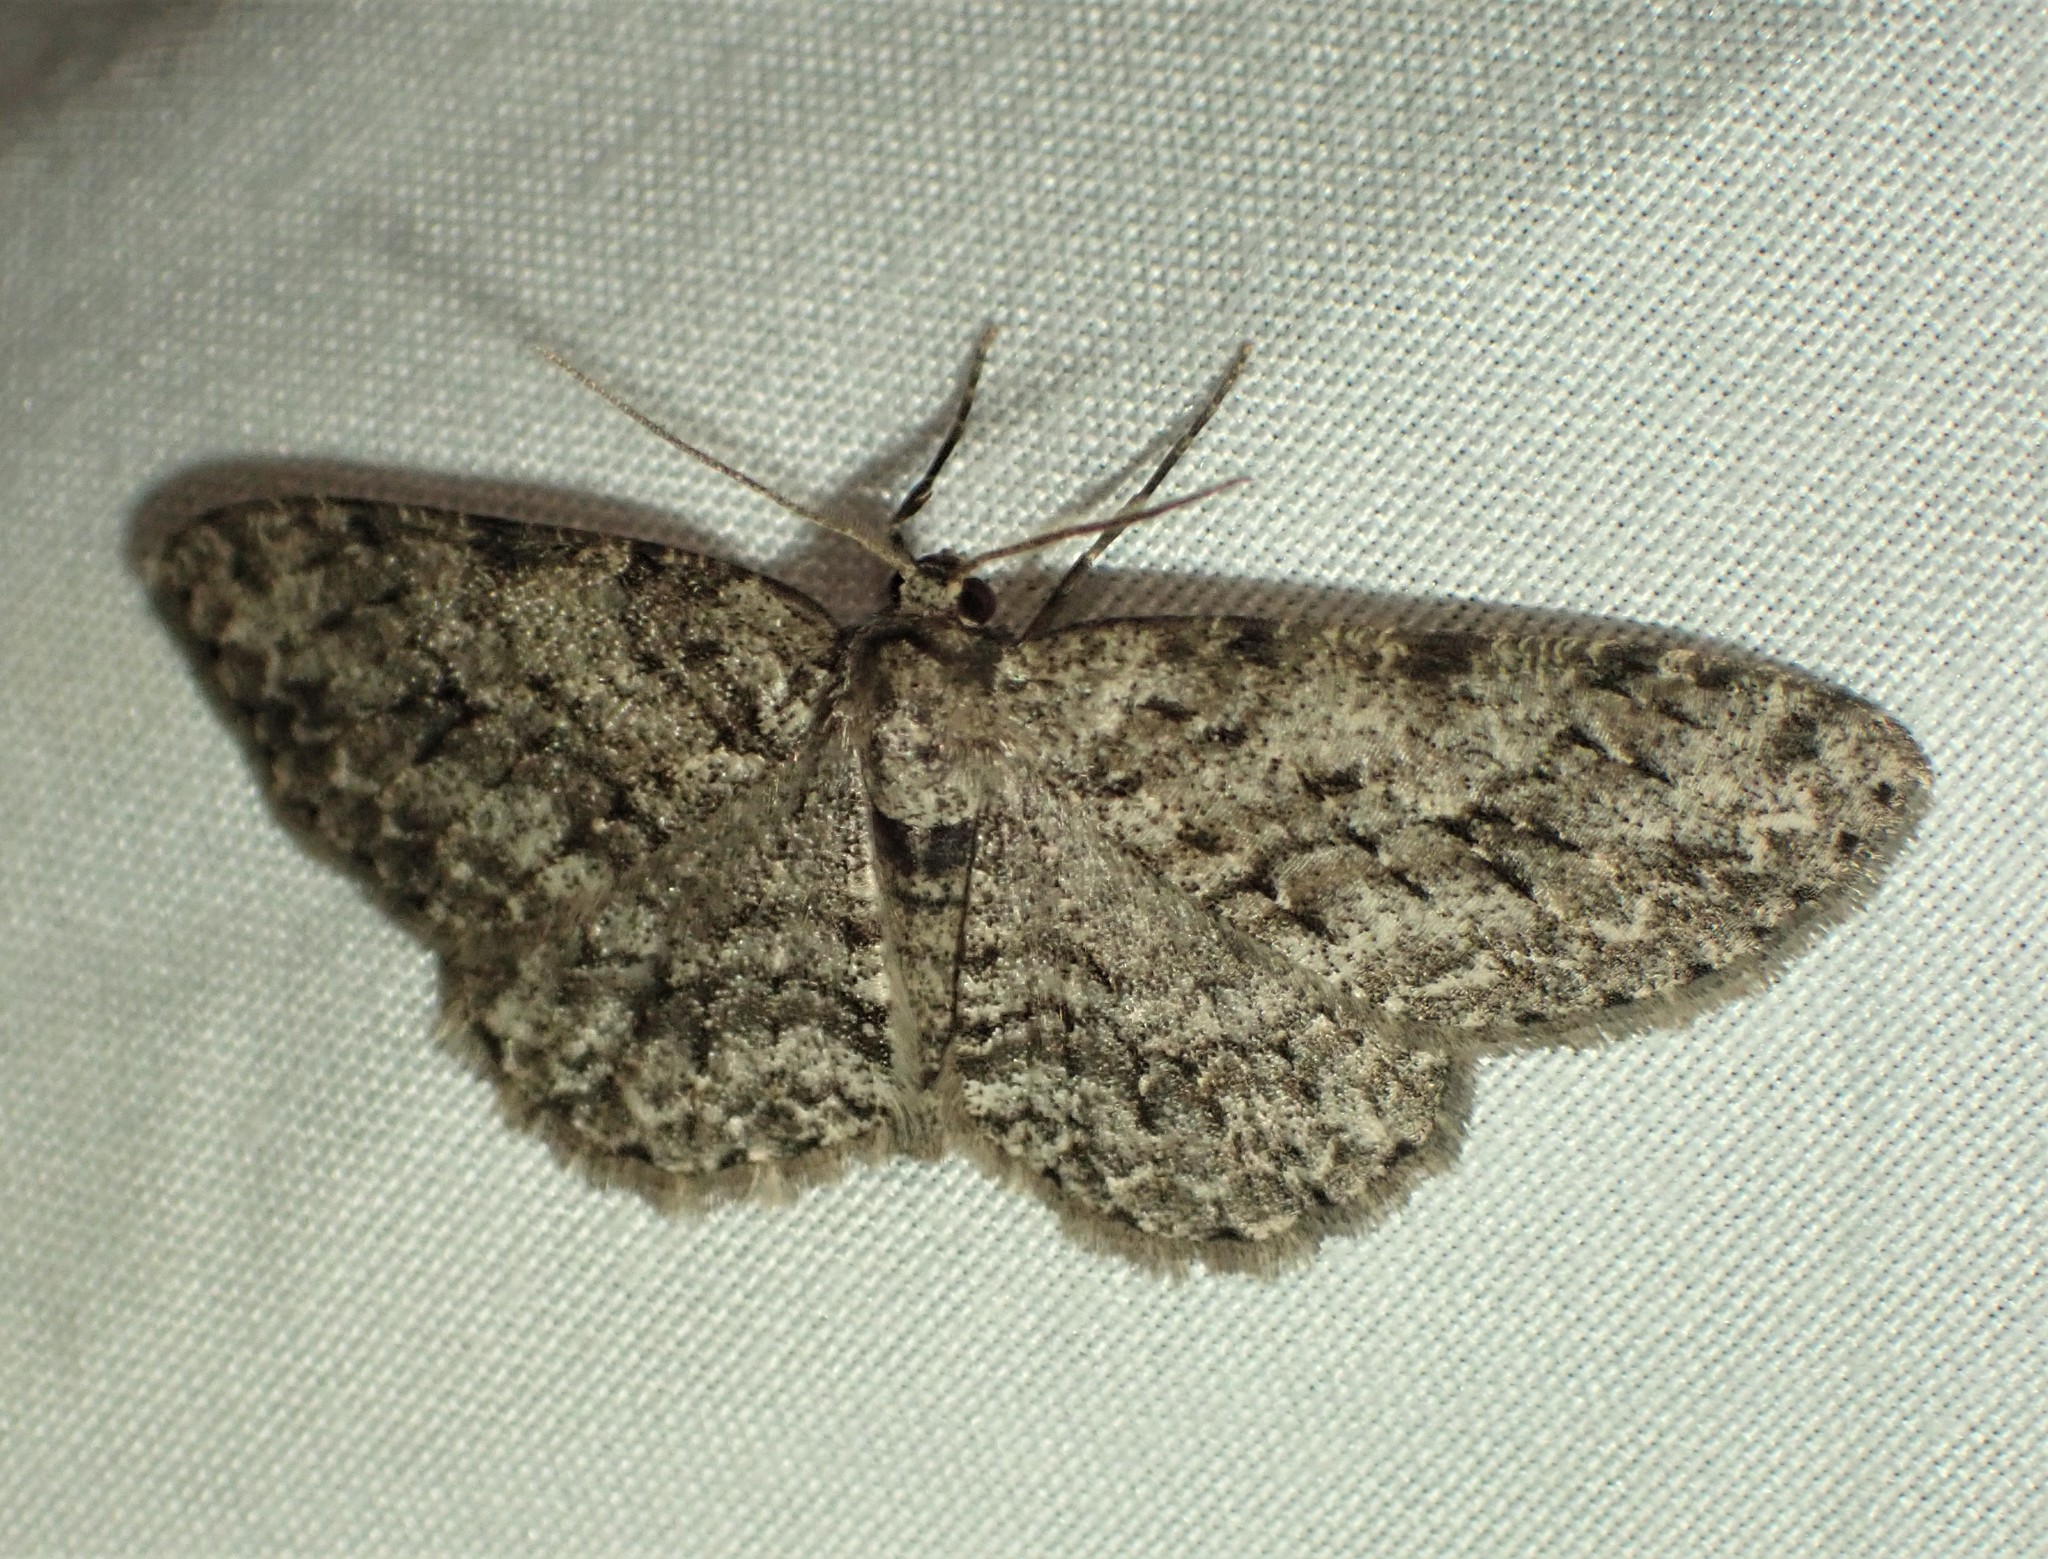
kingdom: Animalia
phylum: Arthropoda
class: Insecta
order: Lepidoptera
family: Geometridae
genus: Ectropis
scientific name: Ectropis crepuscularia
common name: Engrailed
